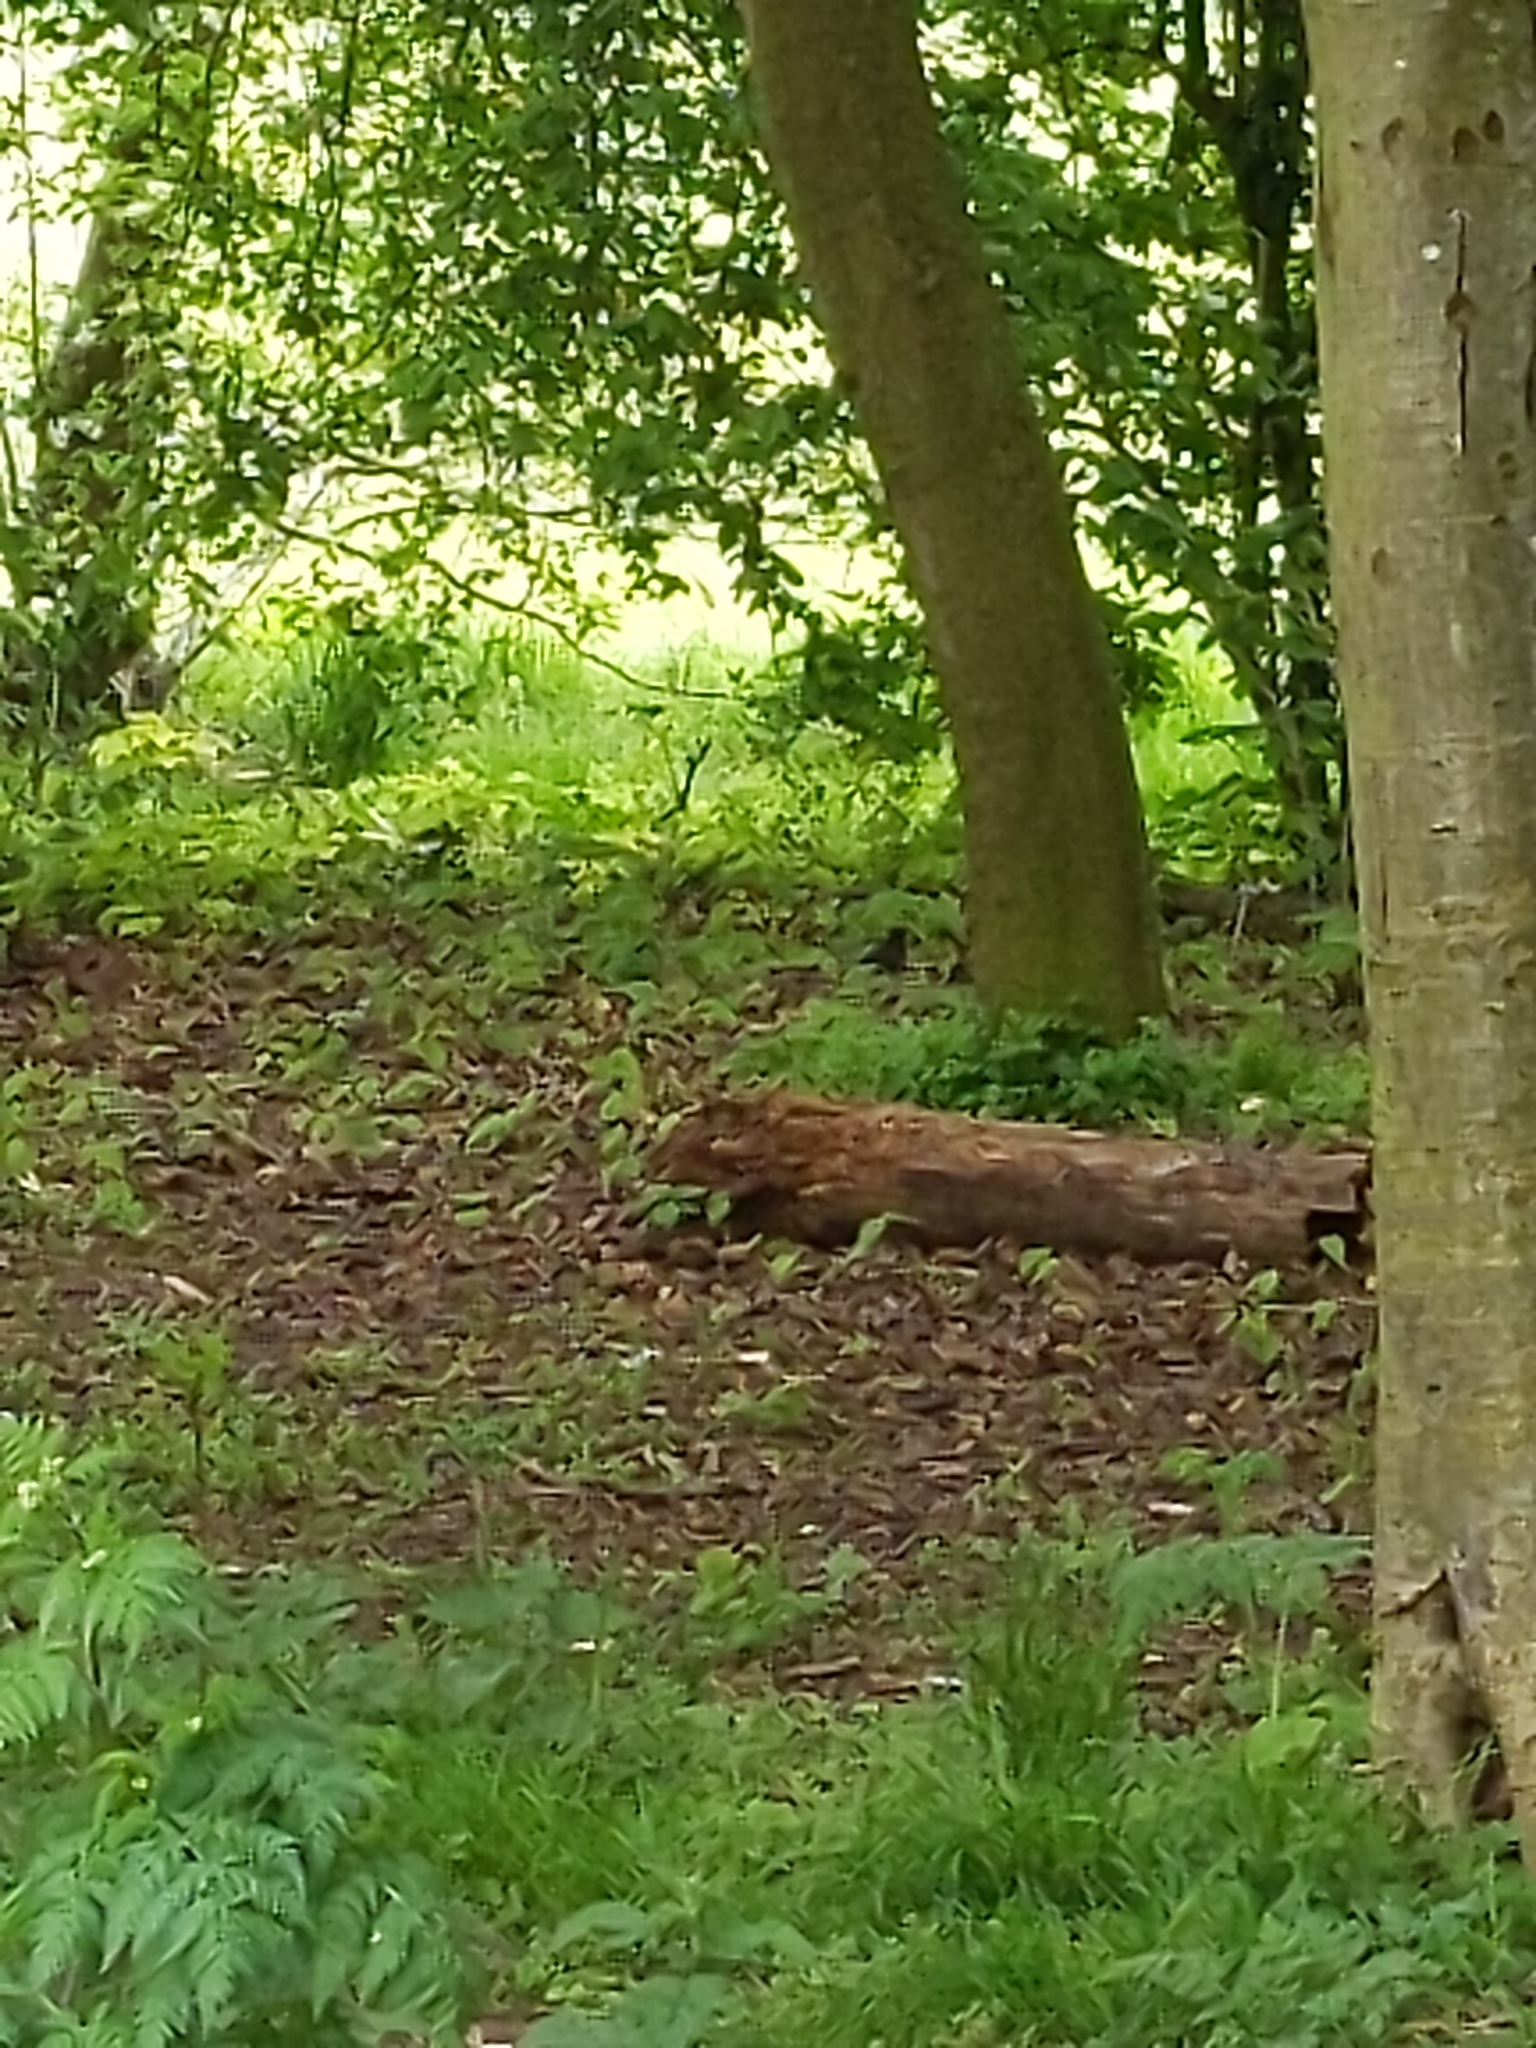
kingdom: Animalia
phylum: Chordata
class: Aves
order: Passeriformes
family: Turdidae
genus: Turdus
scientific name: Turdus merula
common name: Common blackbird
